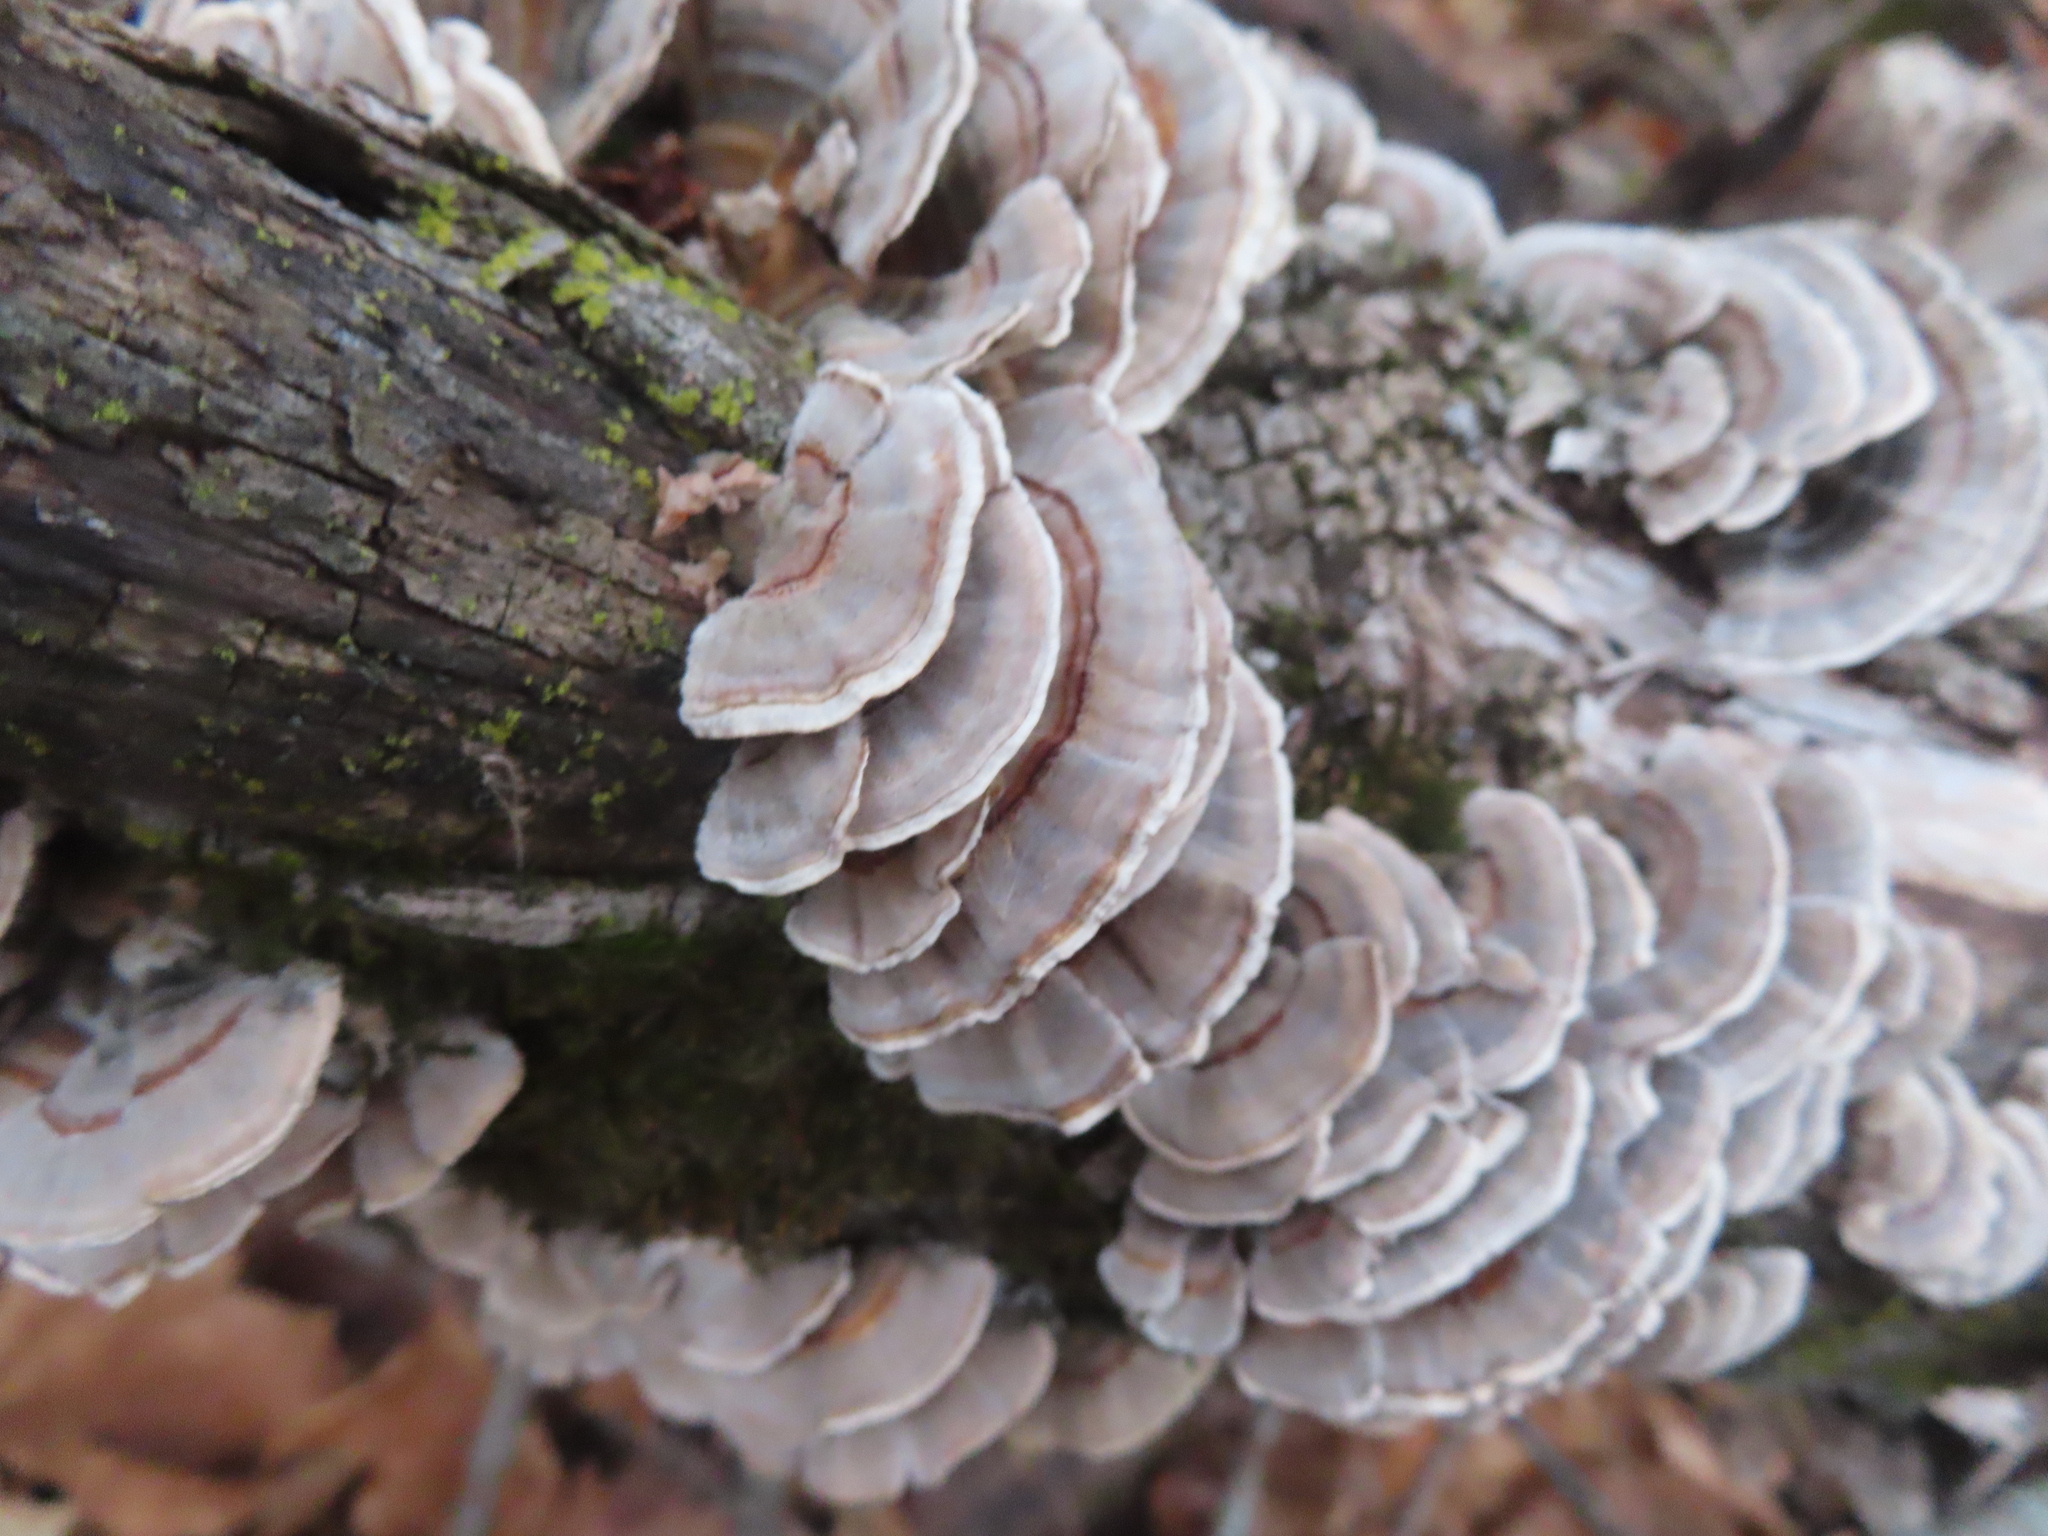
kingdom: Fungi
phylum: Basidiomycota
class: Agaricomycetes
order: Polyporales
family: Polyporaceae
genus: Trametes
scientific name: Trametes versicolor
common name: Turkeytail
